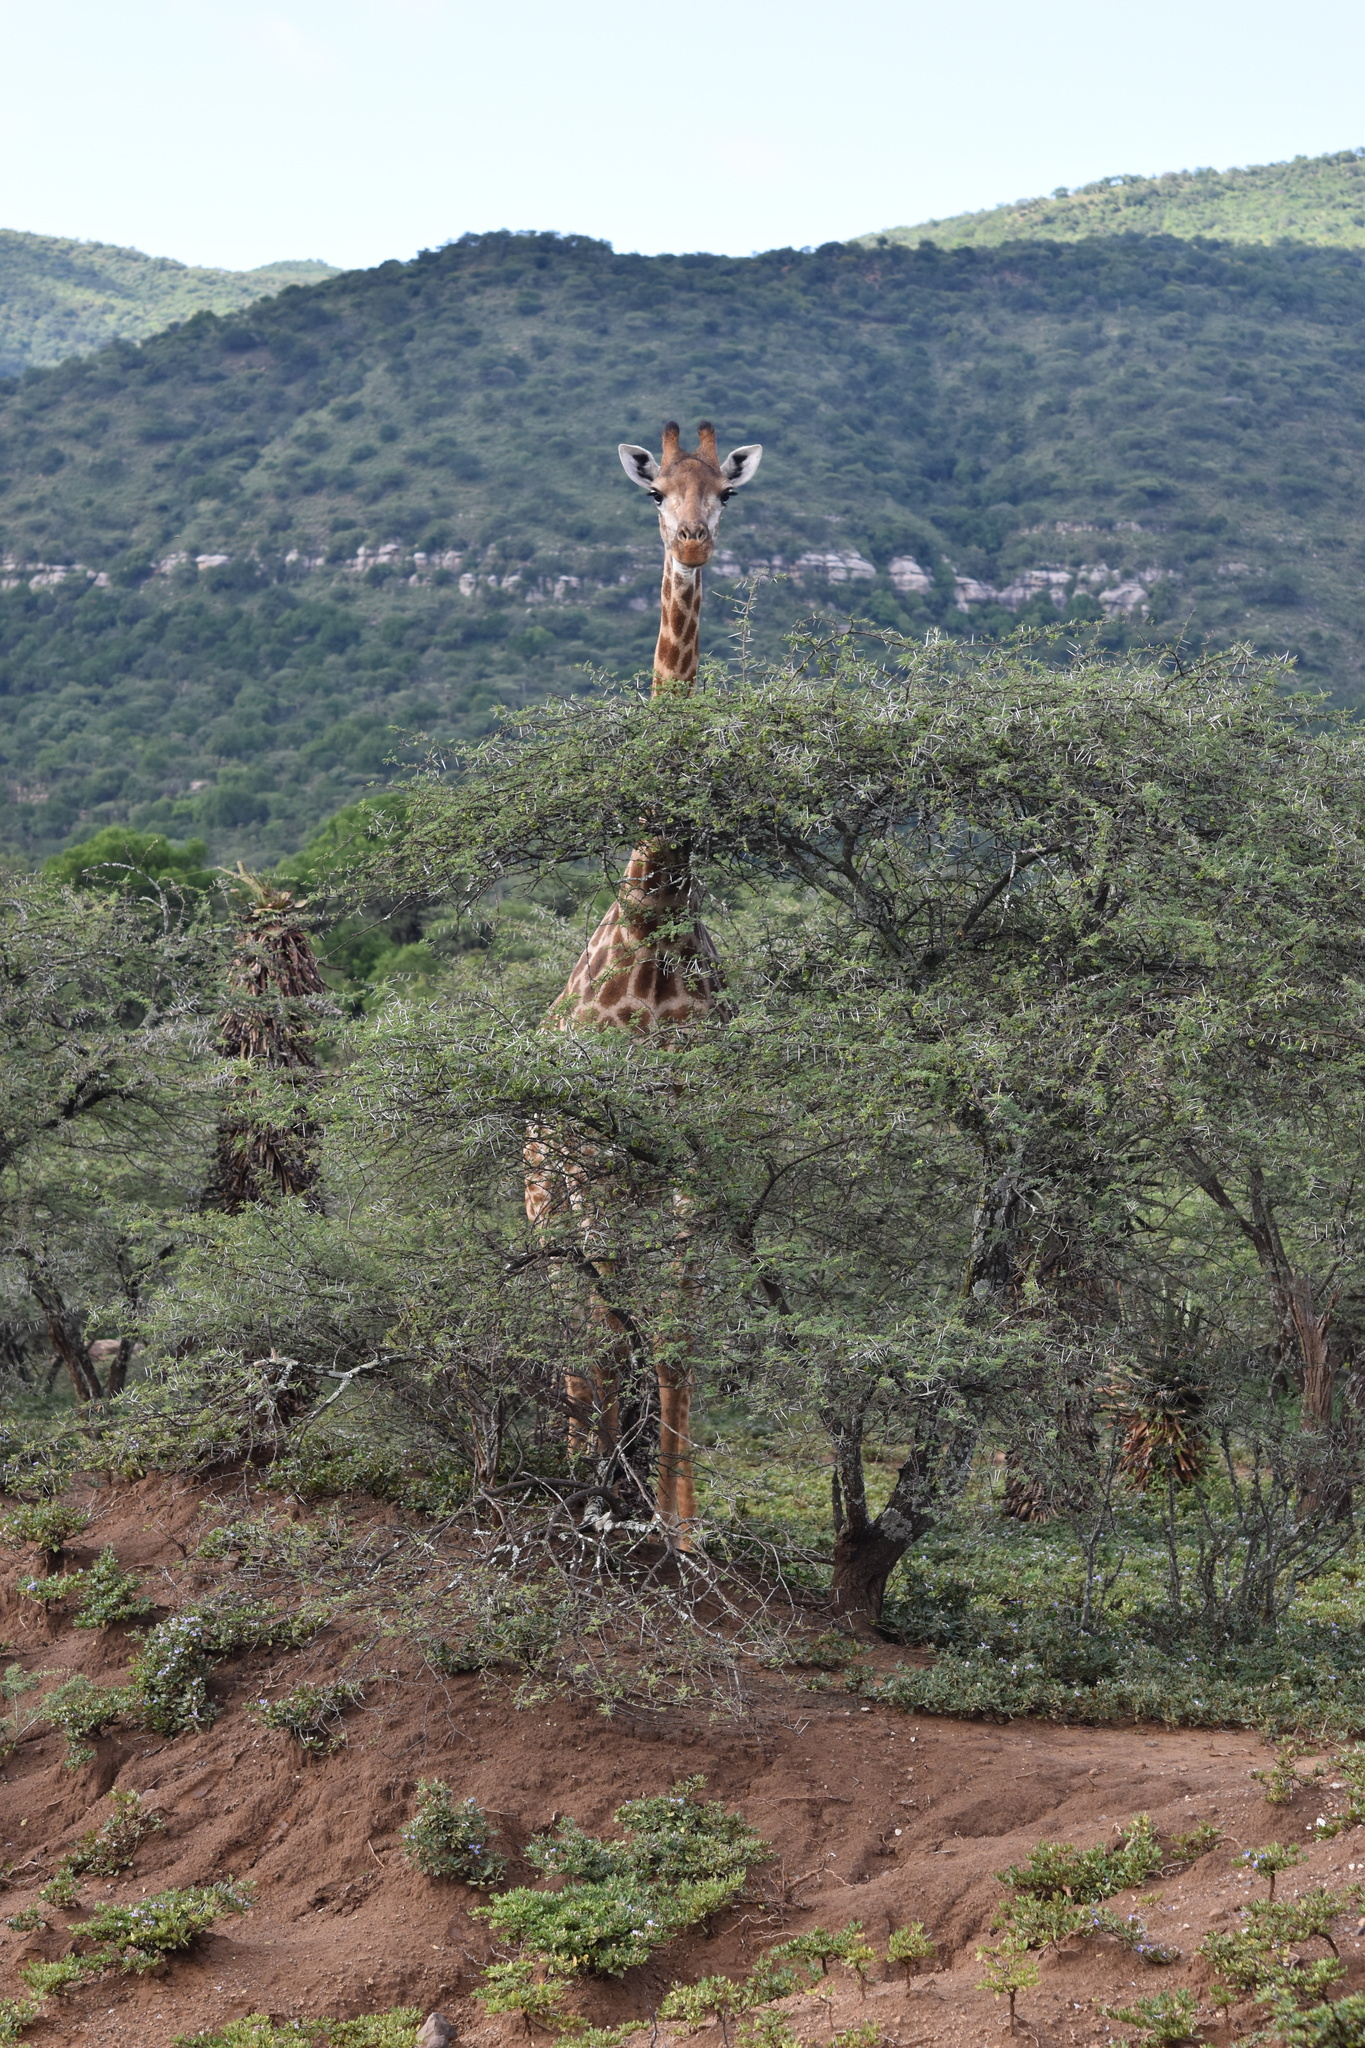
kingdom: Animalia
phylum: Chordata
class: Mammalia
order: Artiodactyla
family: Giraffidae
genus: Giraffa
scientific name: Giraffa giraffa
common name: Southern giraffe
